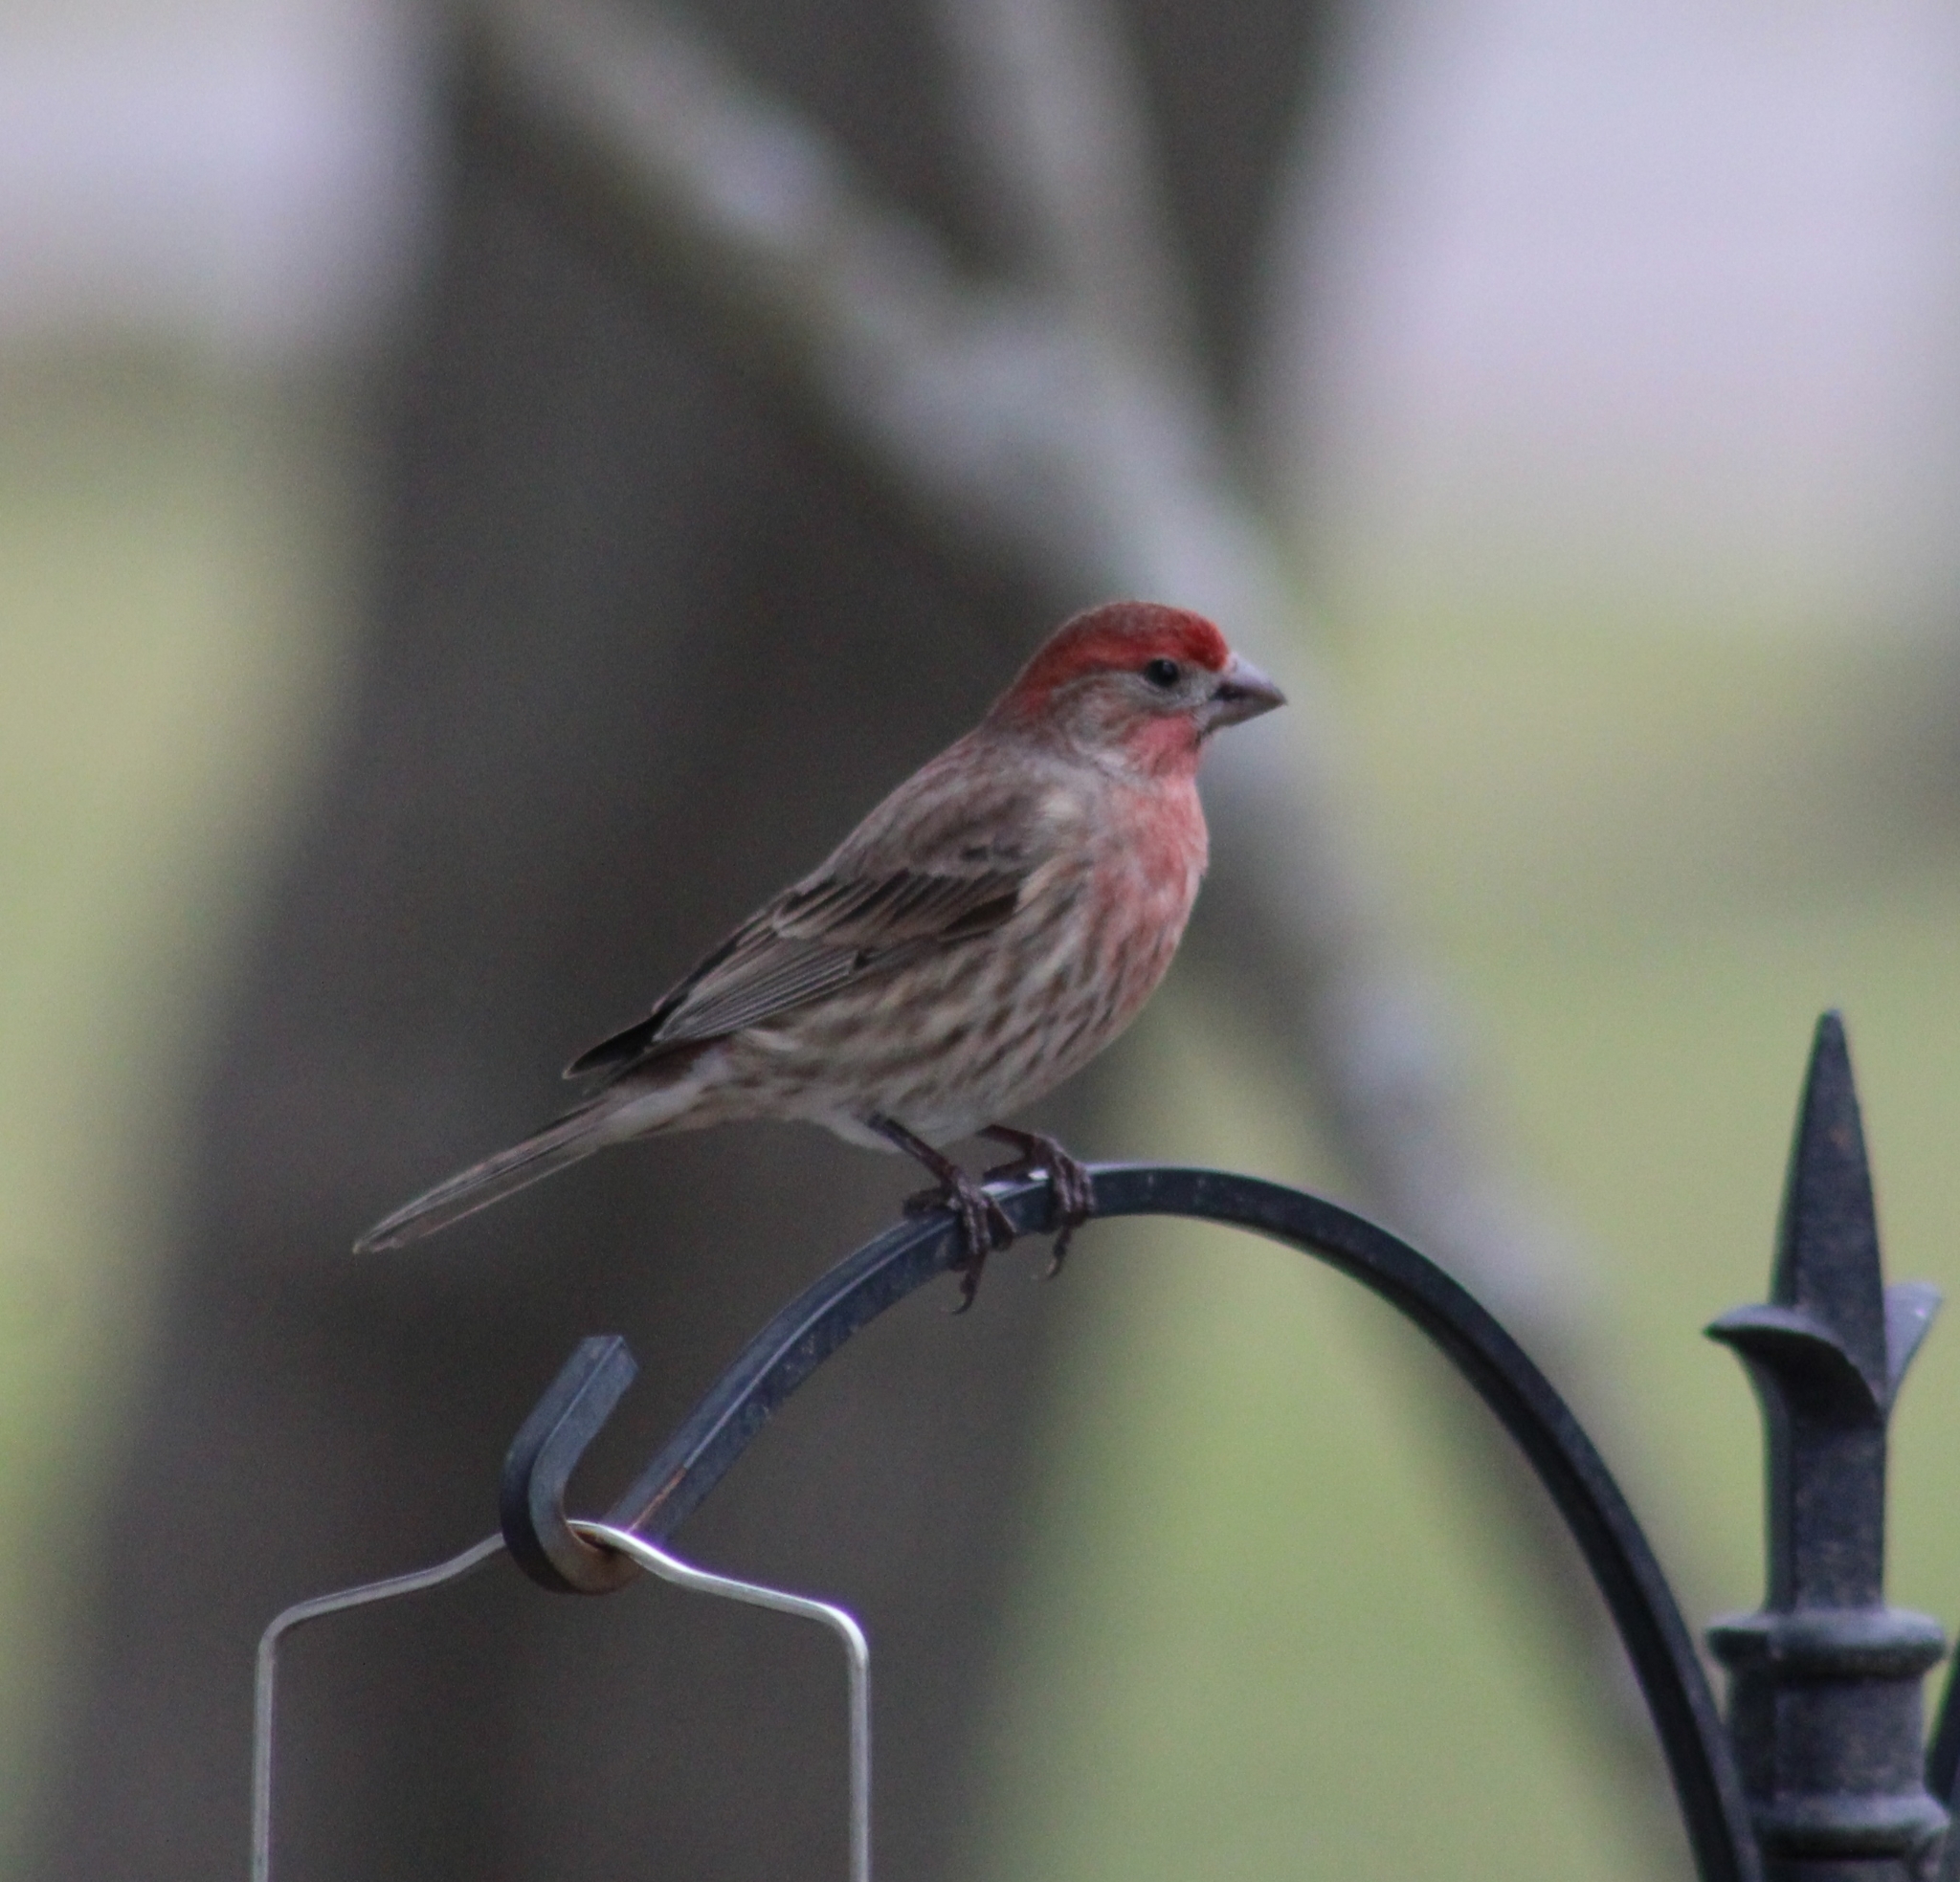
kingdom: Animalia
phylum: Chordata
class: Aves
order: Passeriformes
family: Fringillidae
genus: Haemorhous
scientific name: Haemorhous mexicanus
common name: House finch
